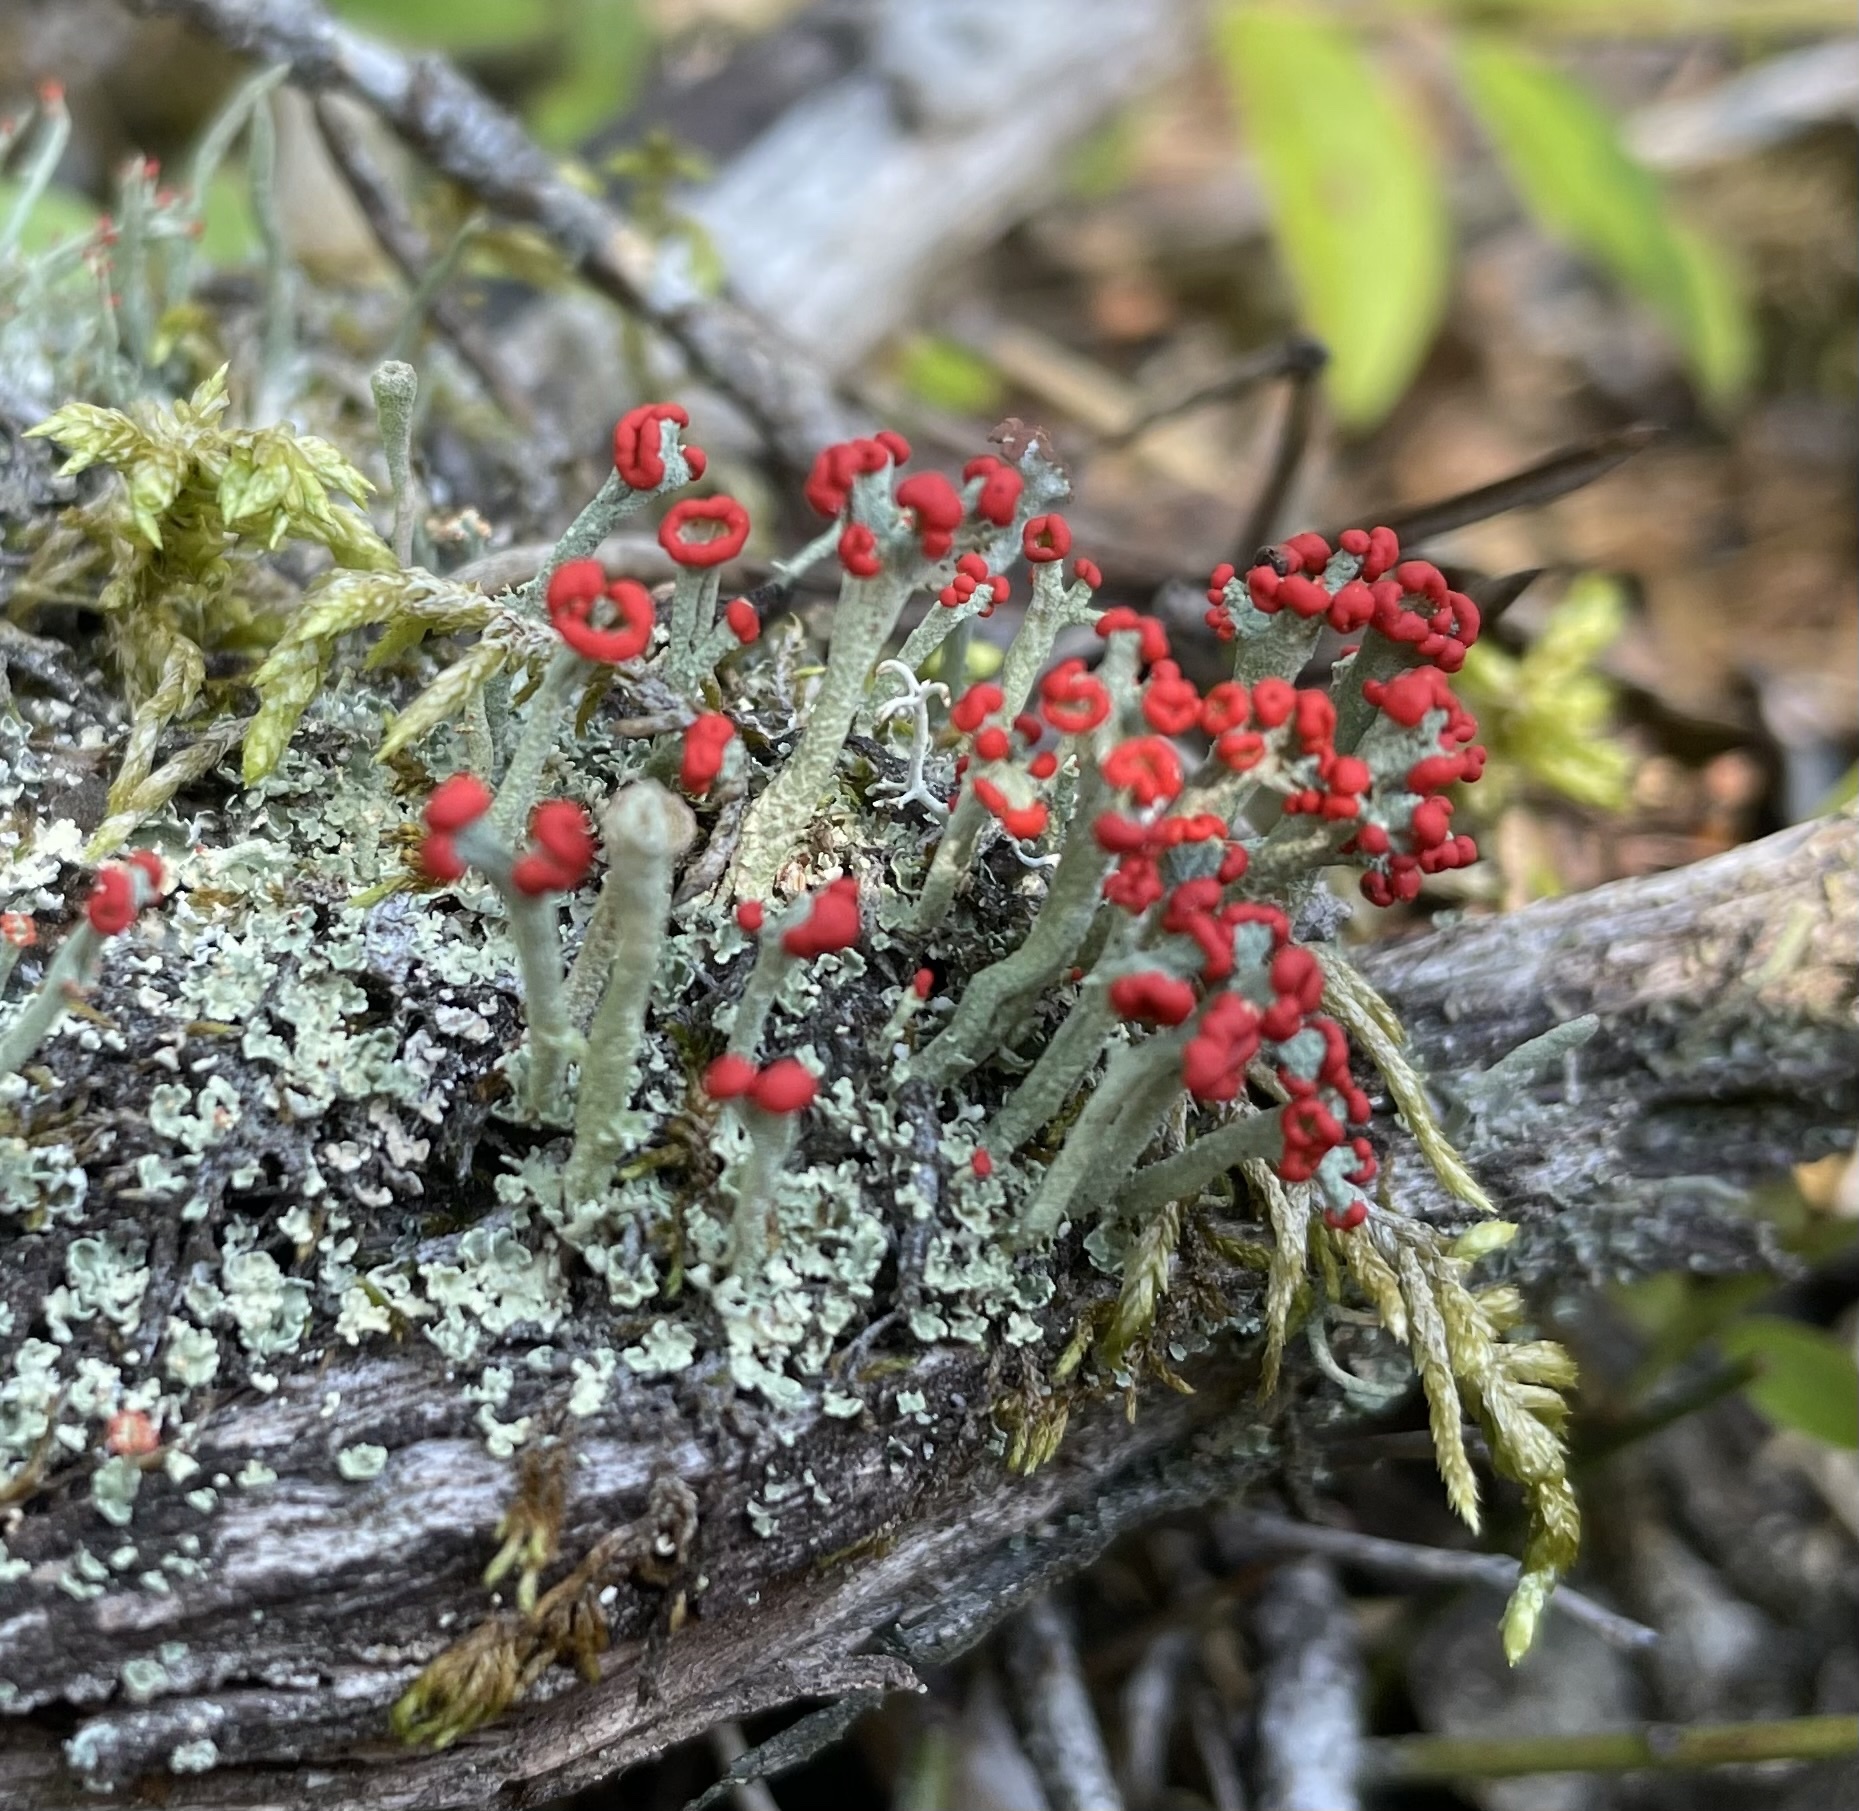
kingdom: Fungi
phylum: Ascomycota
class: Lecanoromycetes
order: Lecanorales
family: Cladoniaceae
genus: Cladonia
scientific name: Cladonia cristatella
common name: British soldier lichen
